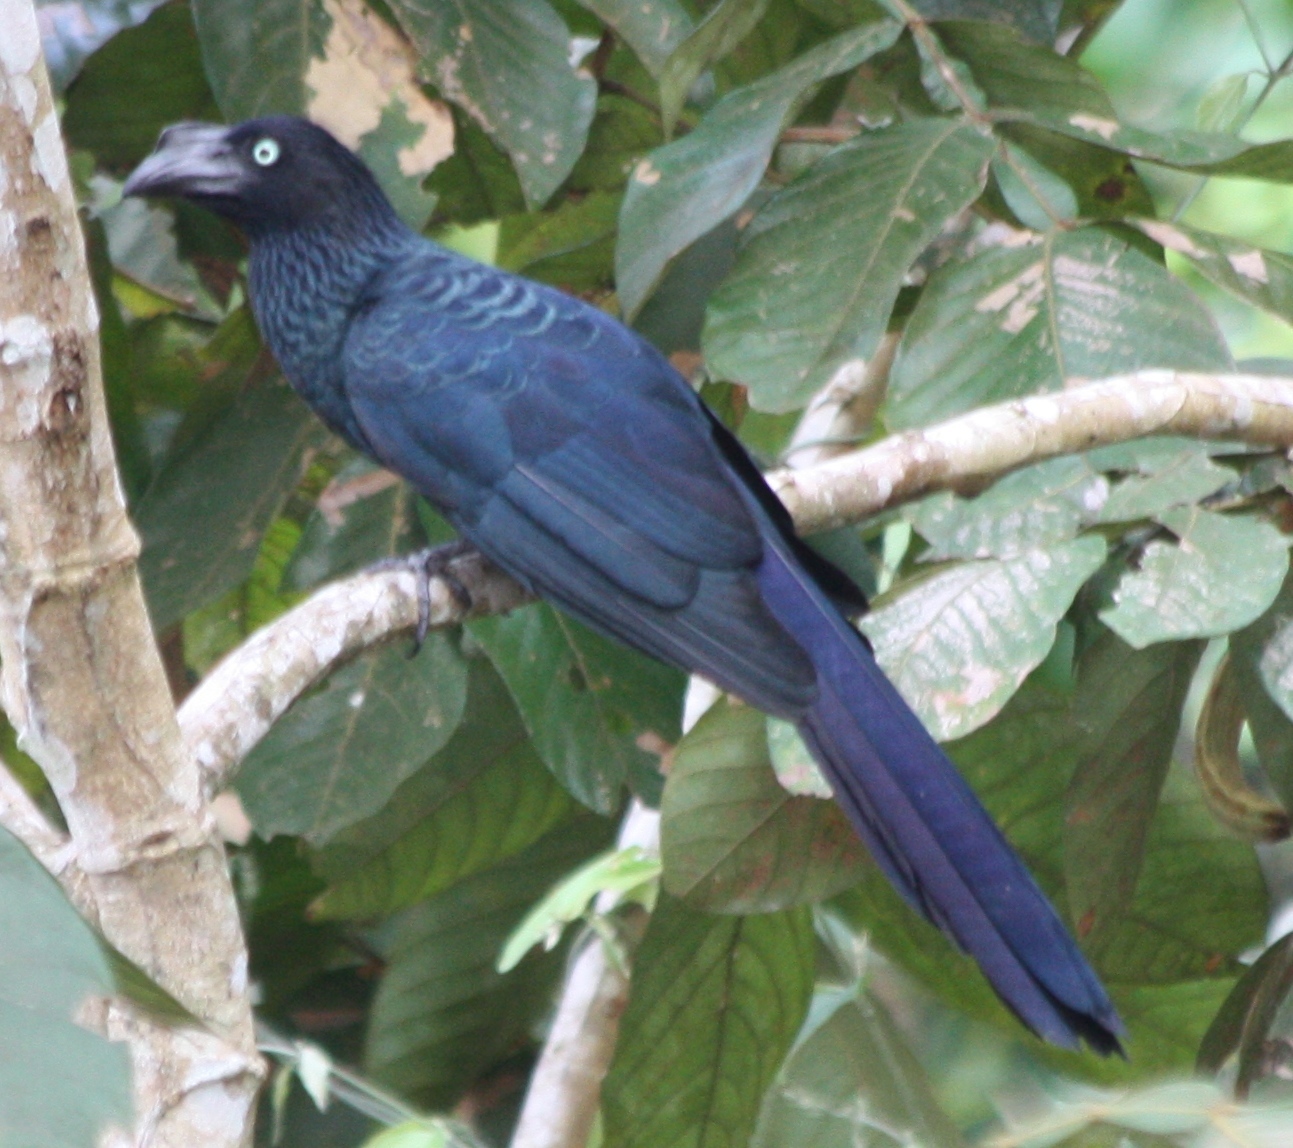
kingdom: Animalia
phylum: Chordata
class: Aves
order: Cuculiformes
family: Cuculidae
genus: Crotophaga
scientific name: Crotophaga major
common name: Greater ani
